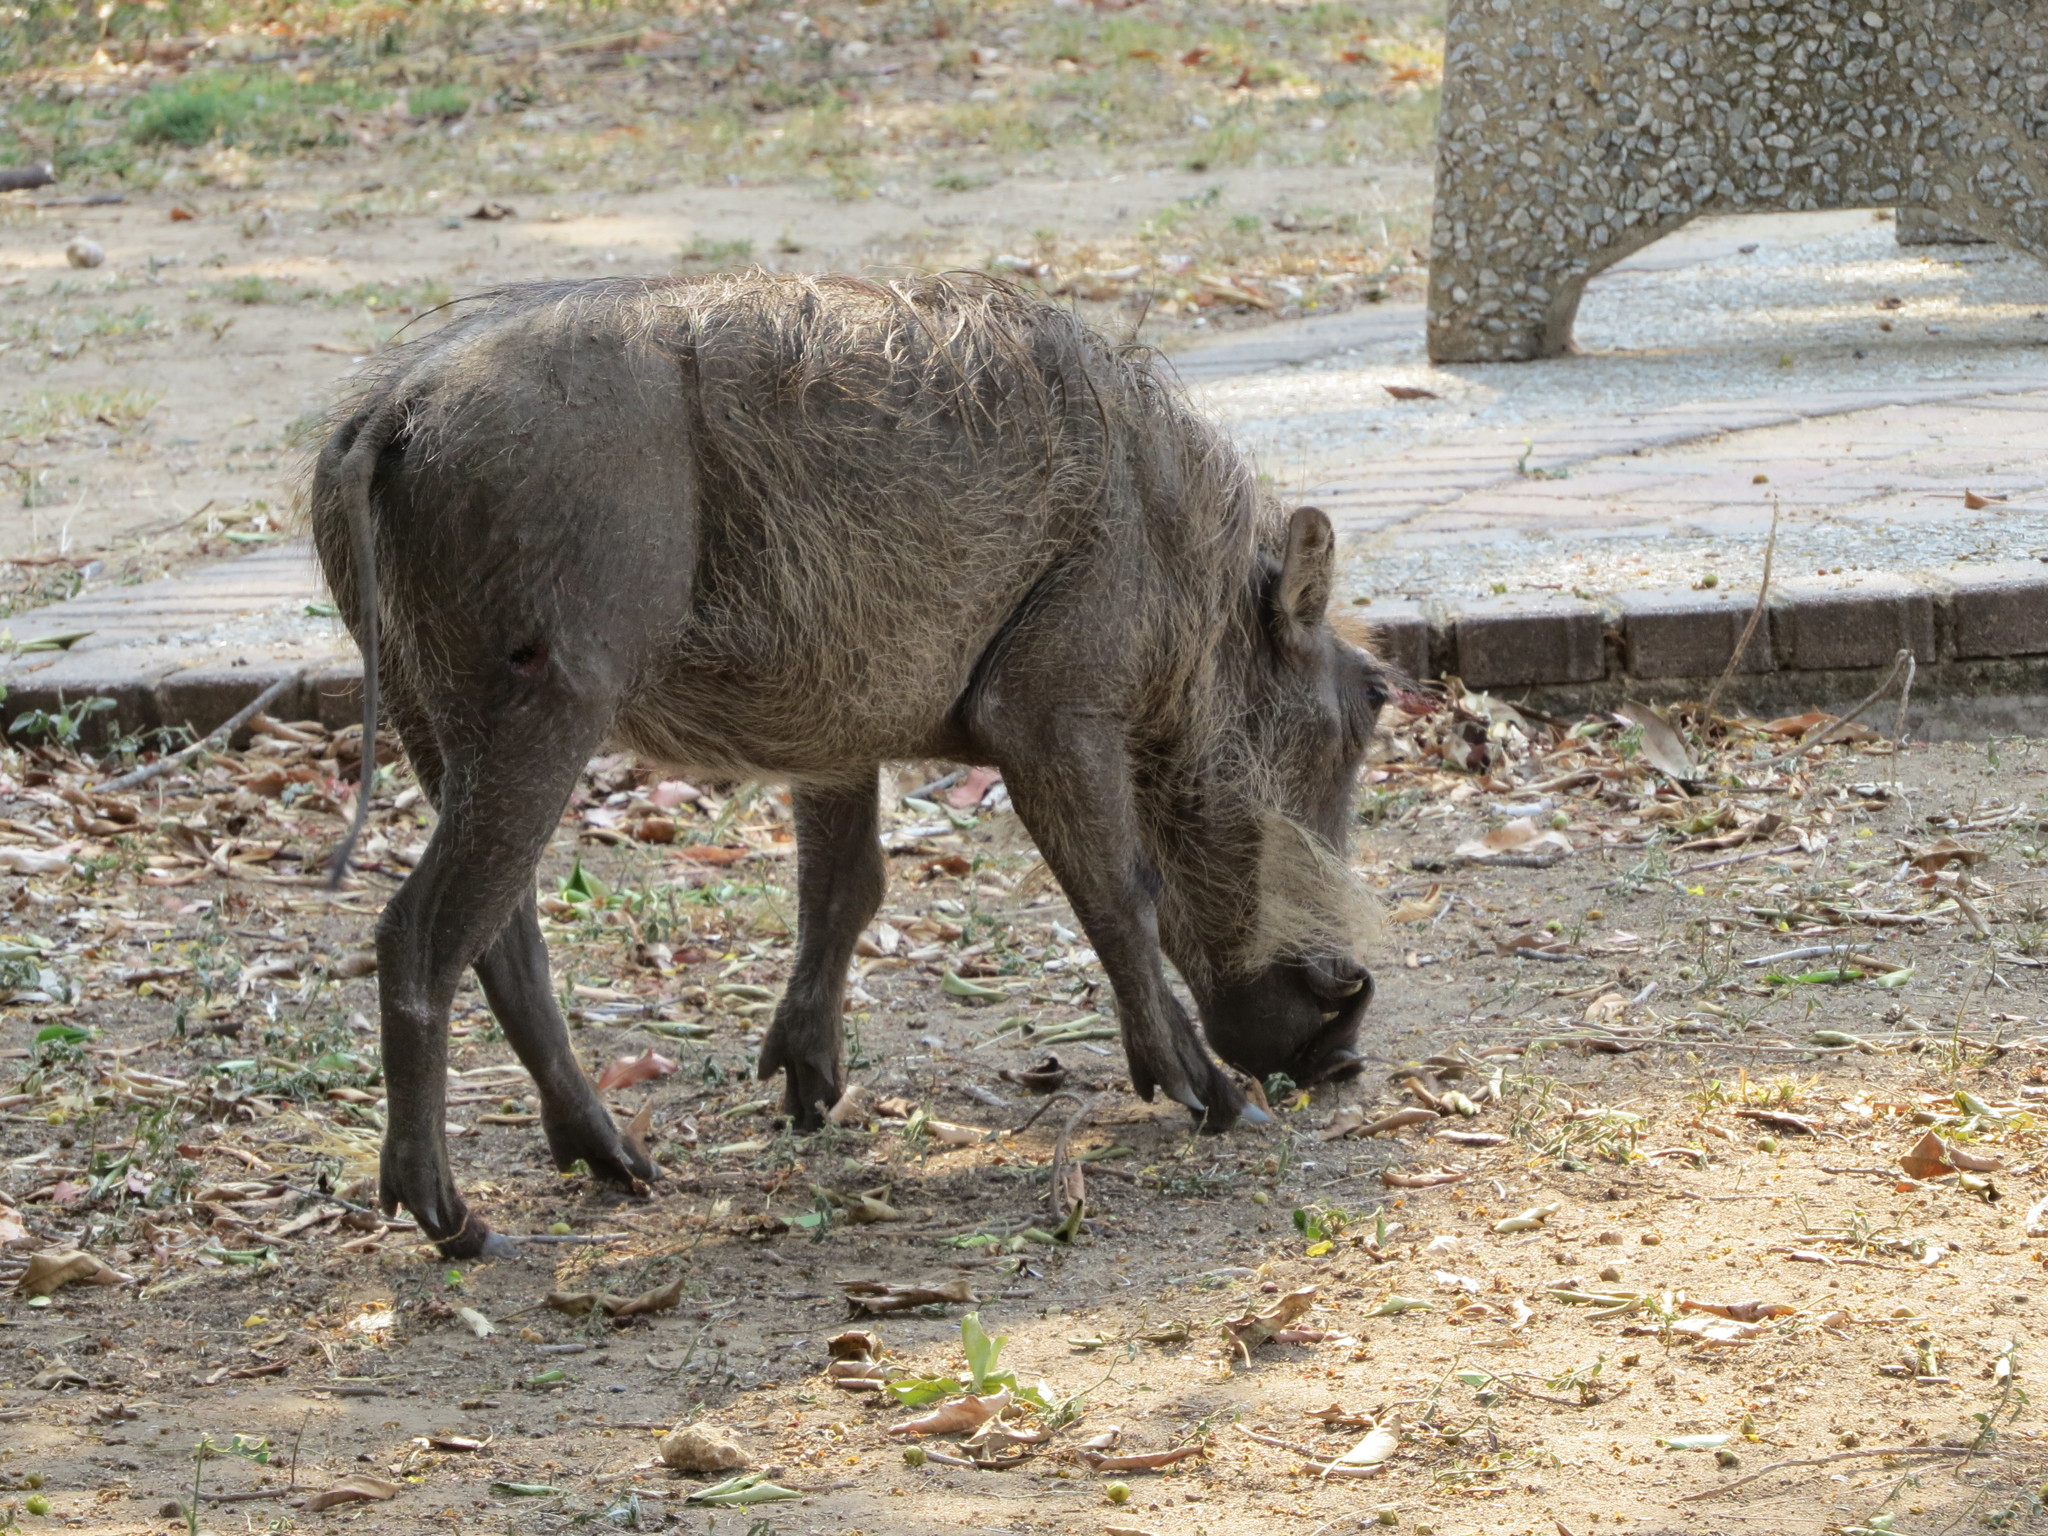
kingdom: Animalia
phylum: Chordata
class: Mammalia
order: Artiodactyla
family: Suidae
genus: Phacochoerus
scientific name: Phacochoerus africanus
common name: Common warthog
